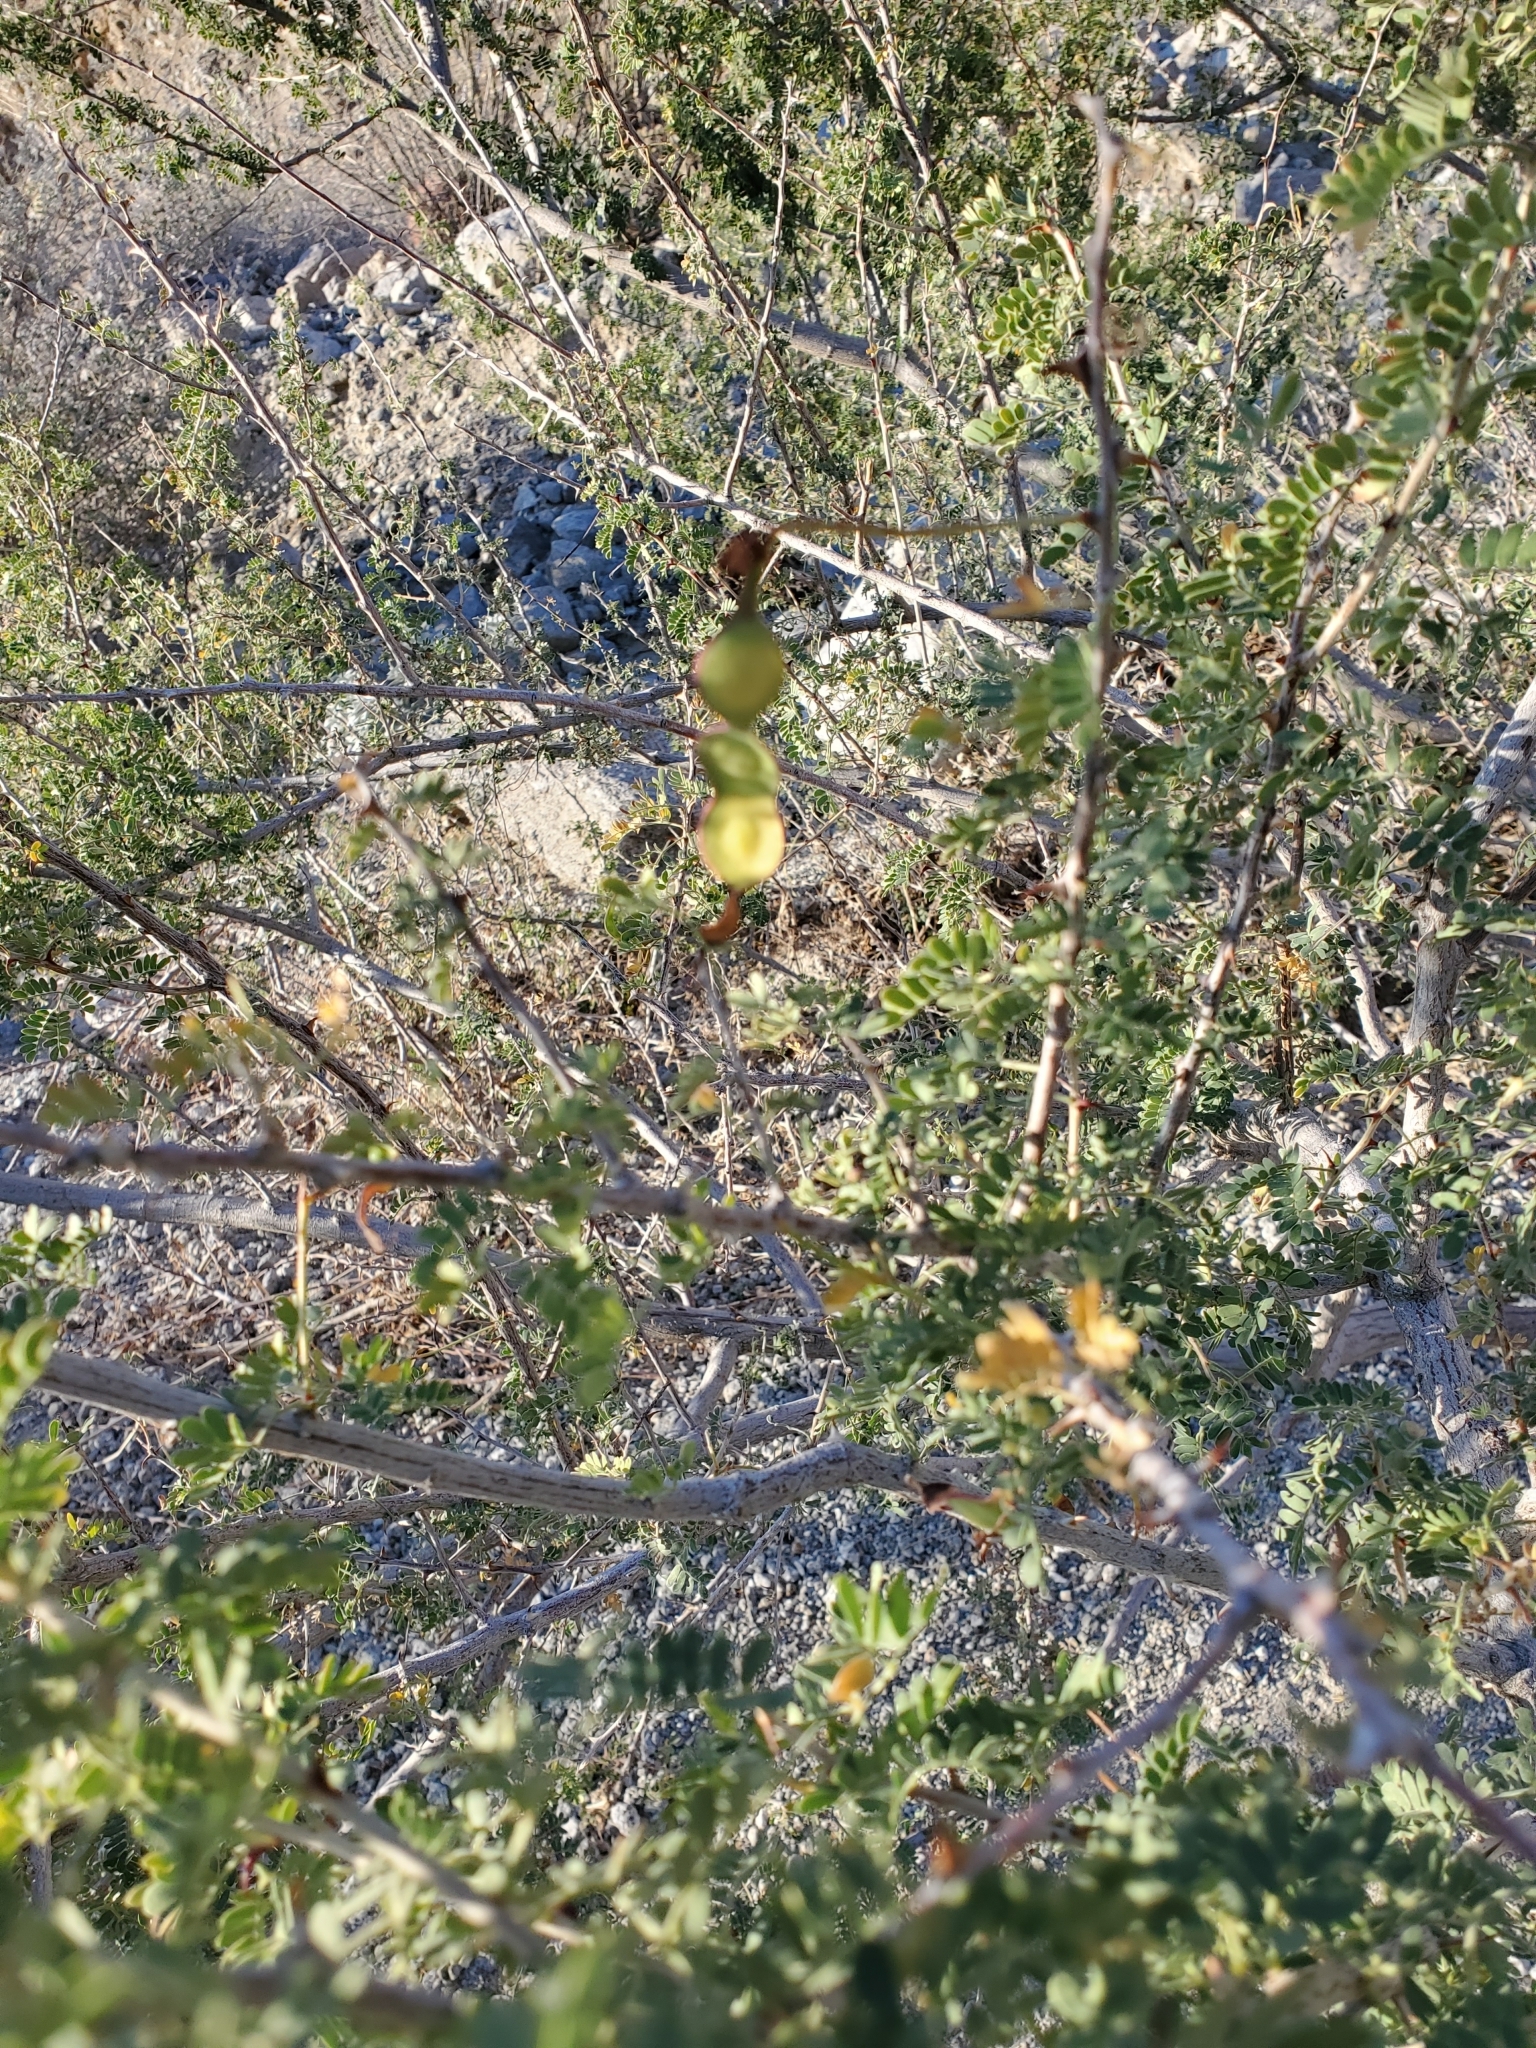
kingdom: Plantae
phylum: Tracheophyta
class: Magnoliopsida
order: Fabales
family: Fabaceae
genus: Senegalia
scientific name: Senegalia greggii
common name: Texas-mimosa
